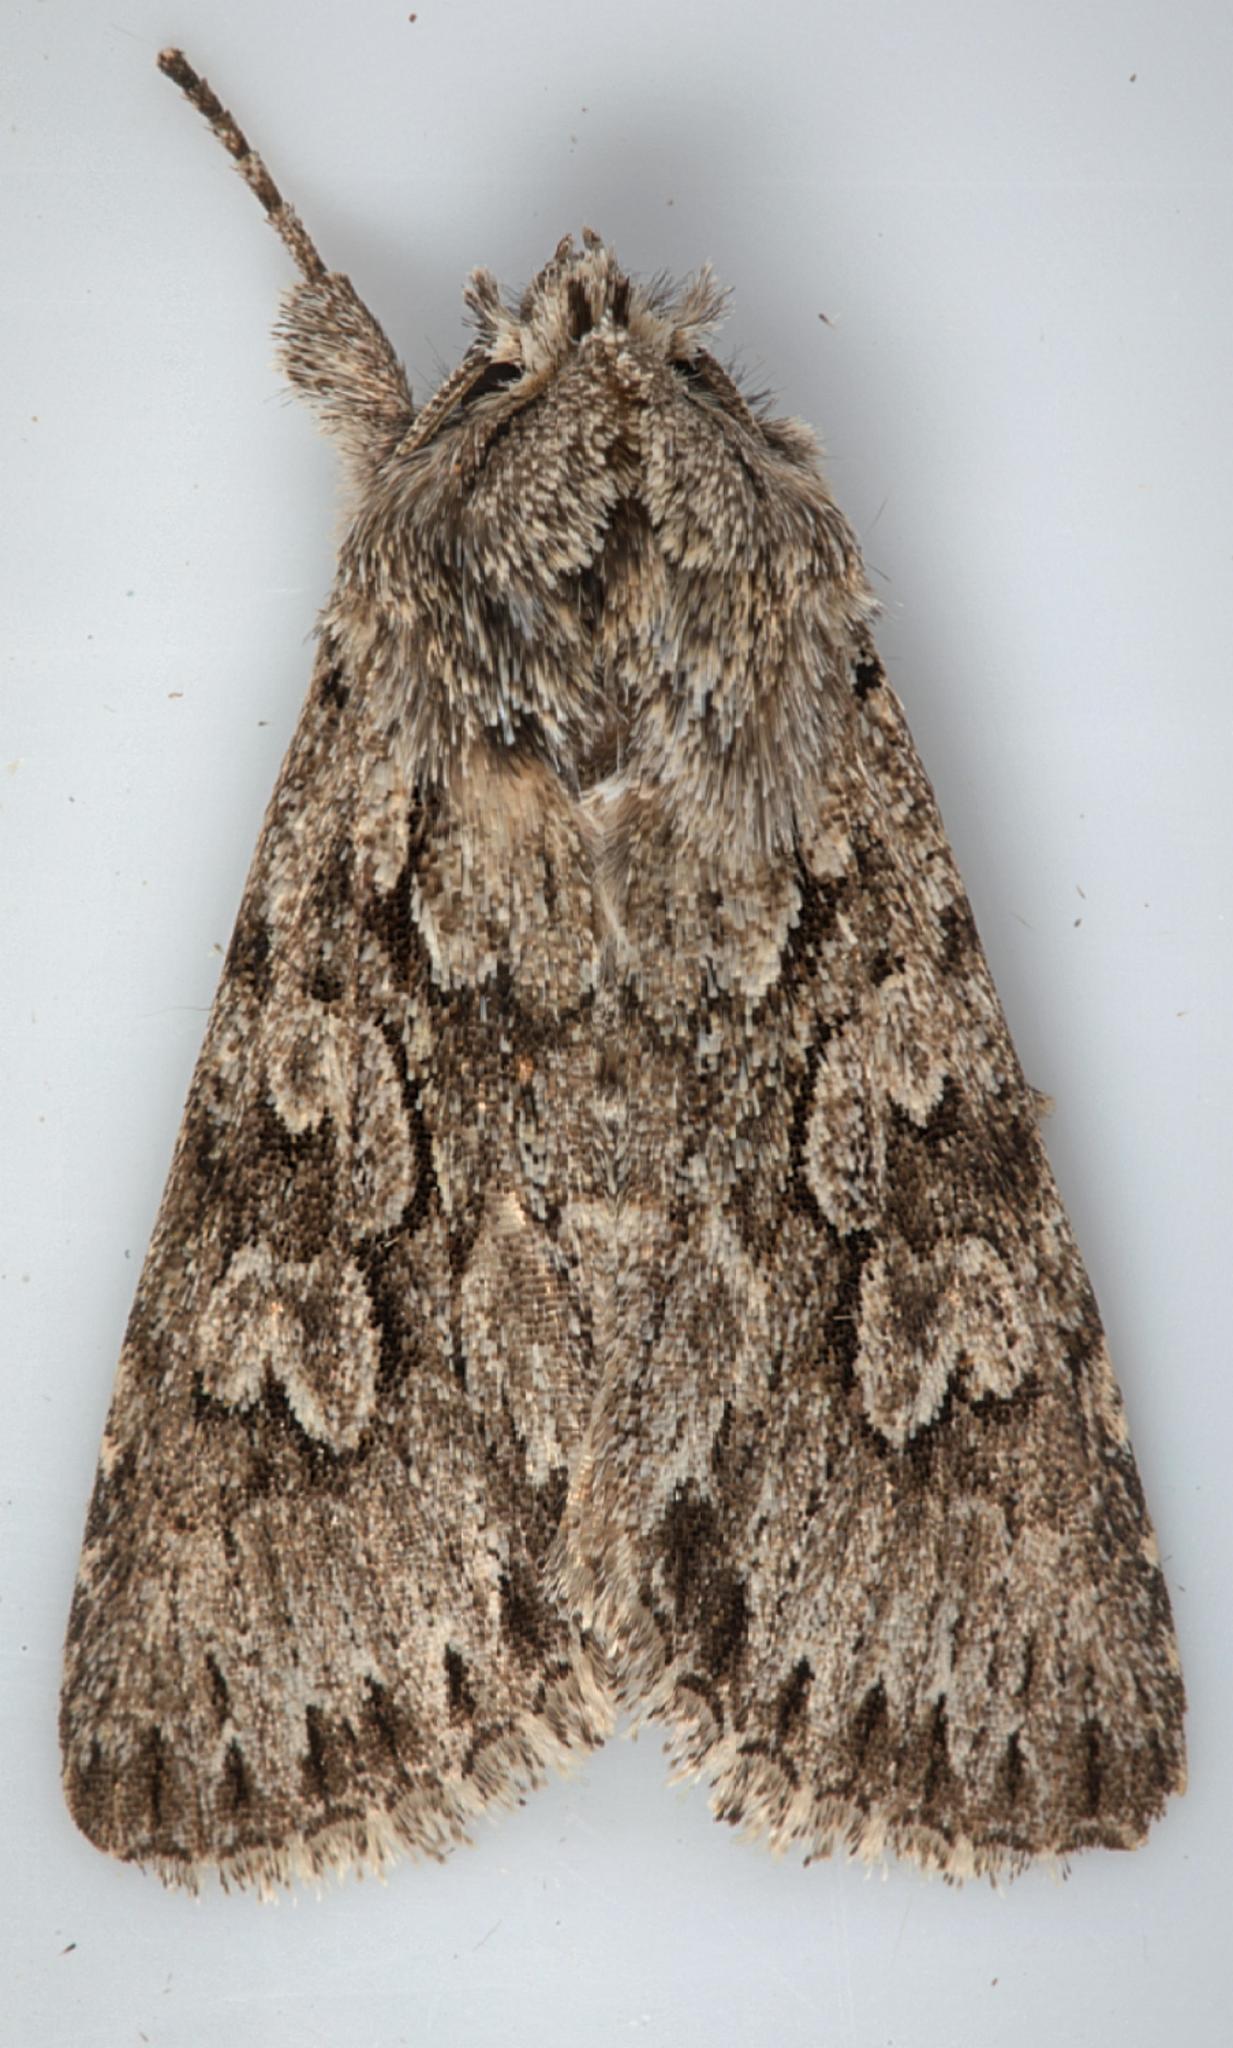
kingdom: Animalia
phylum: Arthropoda
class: Insecta
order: Lepidoptera
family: Noctuidae
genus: Xylocampa
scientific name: Xylocampa areola
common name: Early grey
